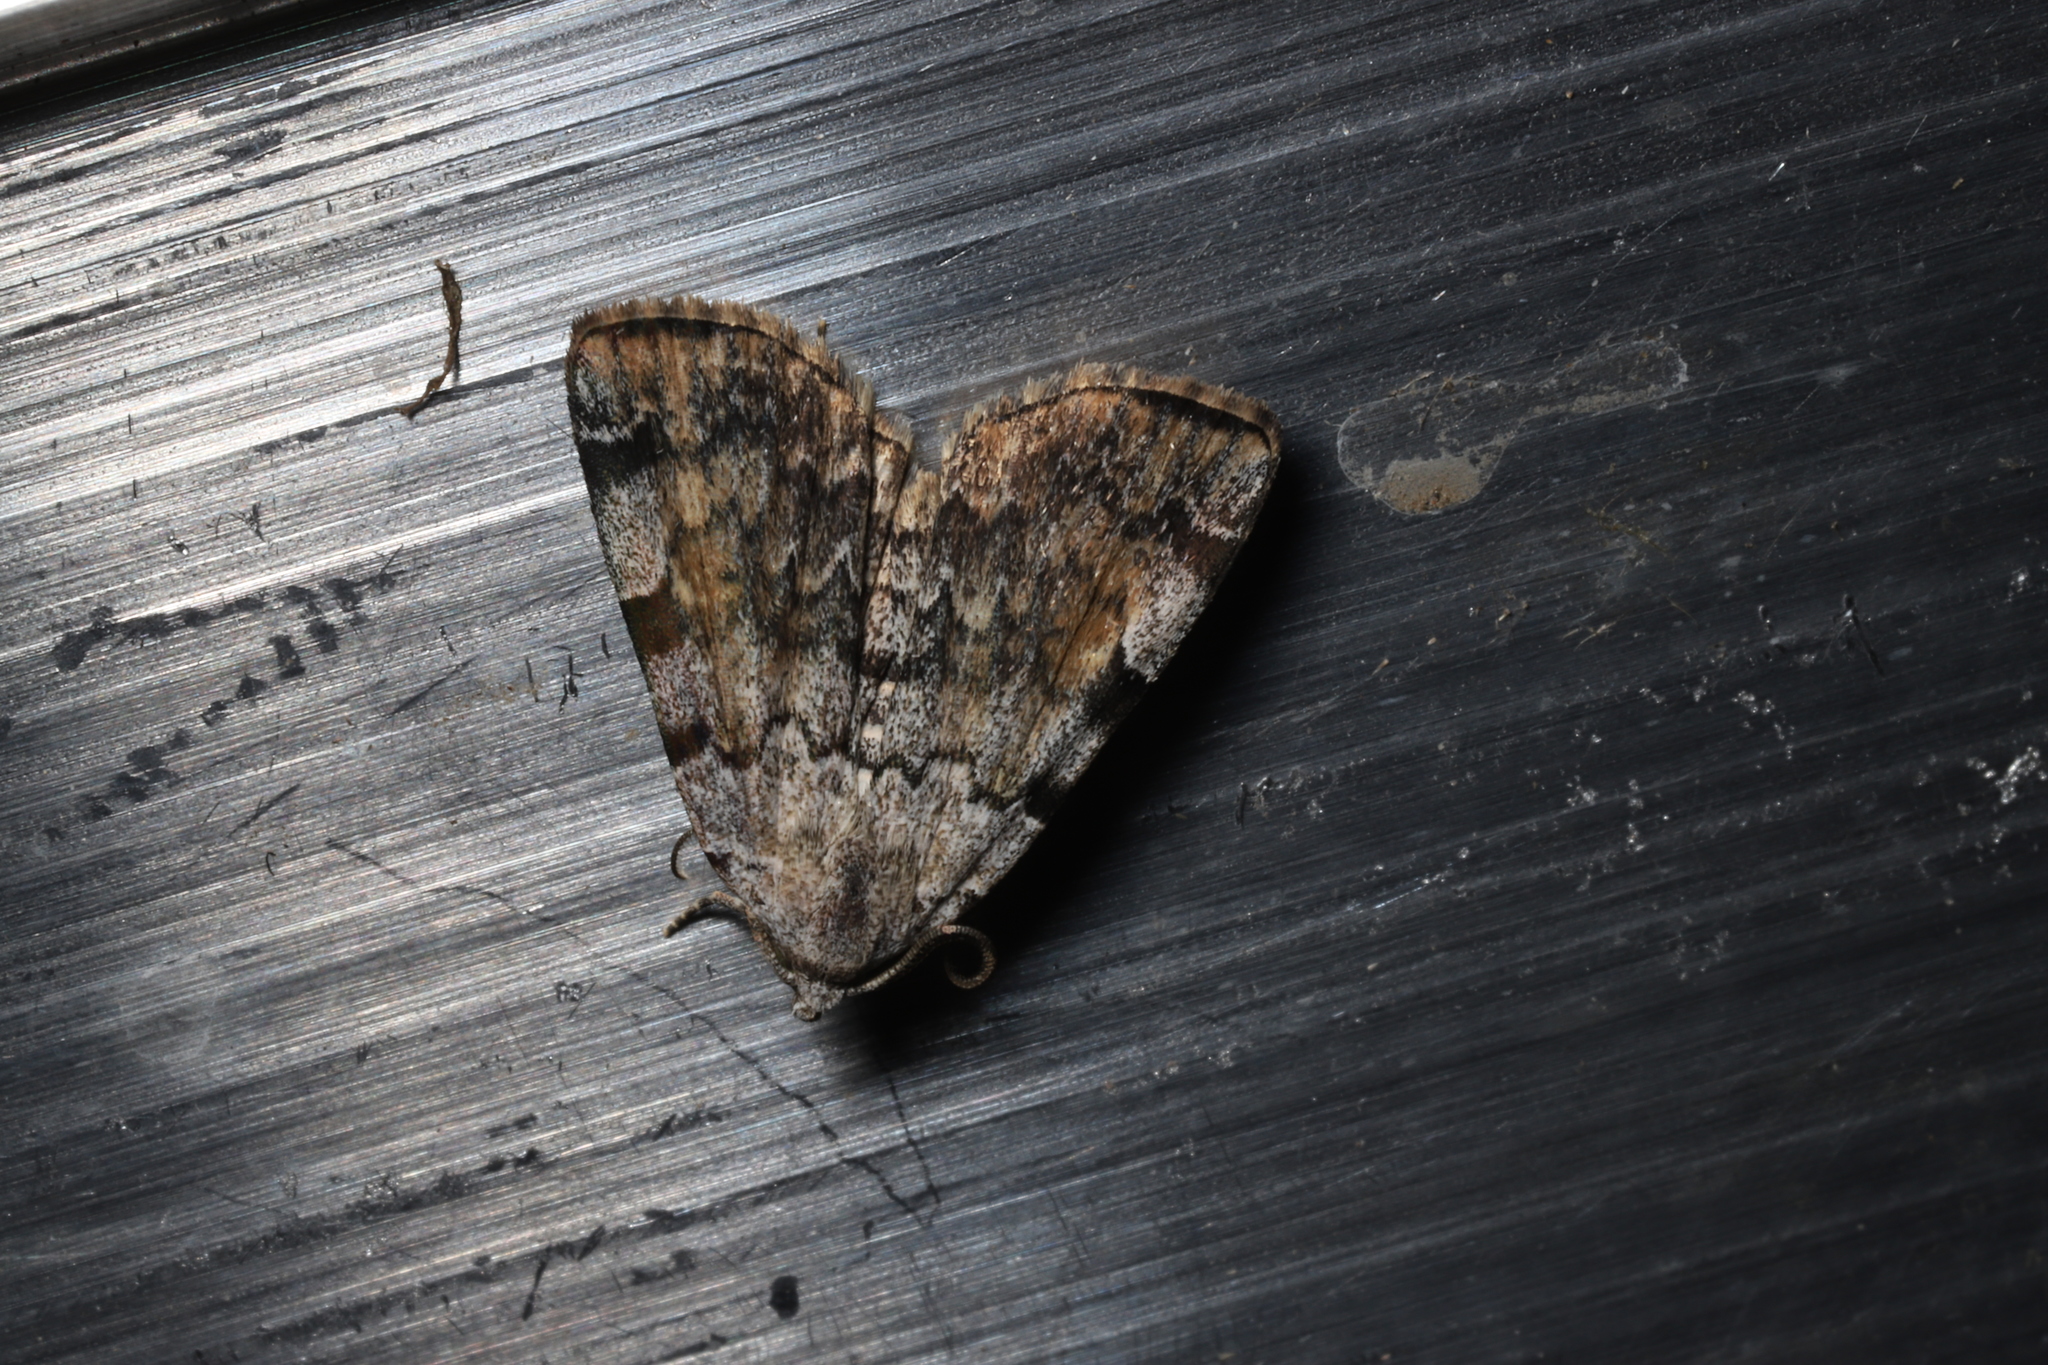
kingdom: Animalia
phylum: Arthropoda
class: Insecta
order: Lepidoptera
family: Erebidae
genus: Idia
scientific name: Idia americalis
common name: American idia moth
